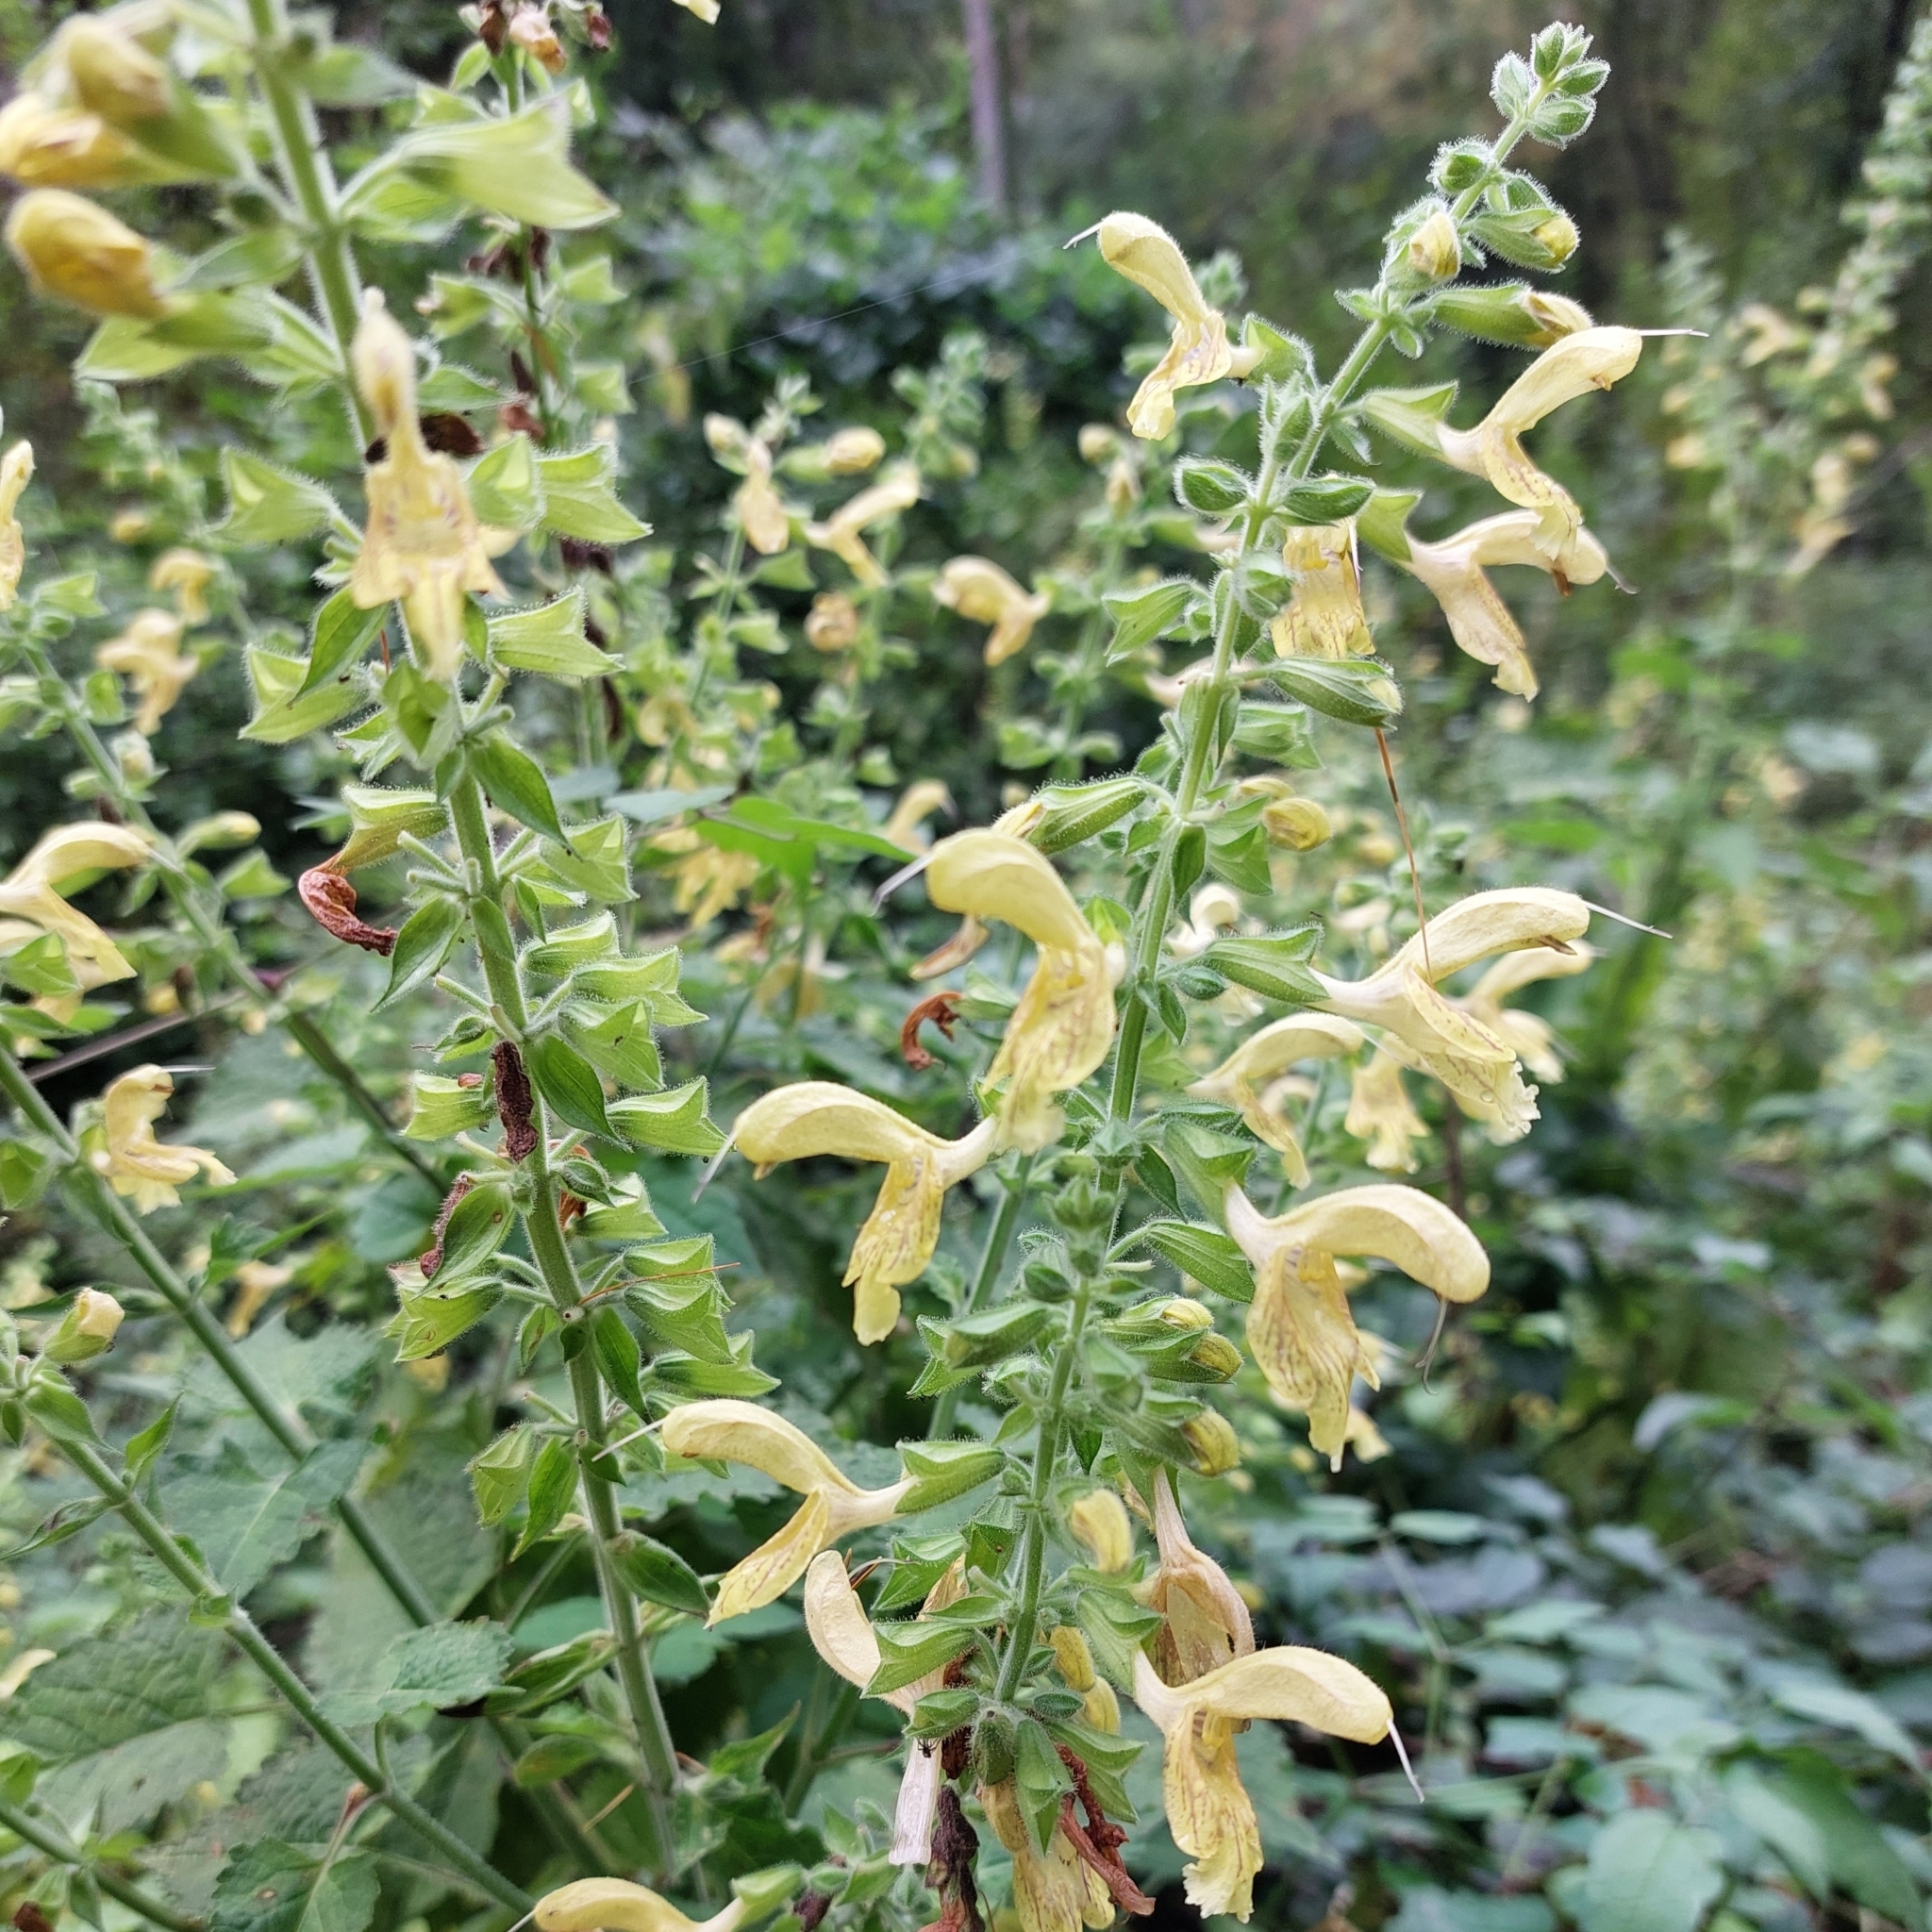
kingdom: Plantae
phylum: Tracheophyta
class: Magnoliopsida
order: Lamiales
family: Lamiaceae
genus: Salvia
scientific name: Salvia glutinosa
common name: Sticky clary
